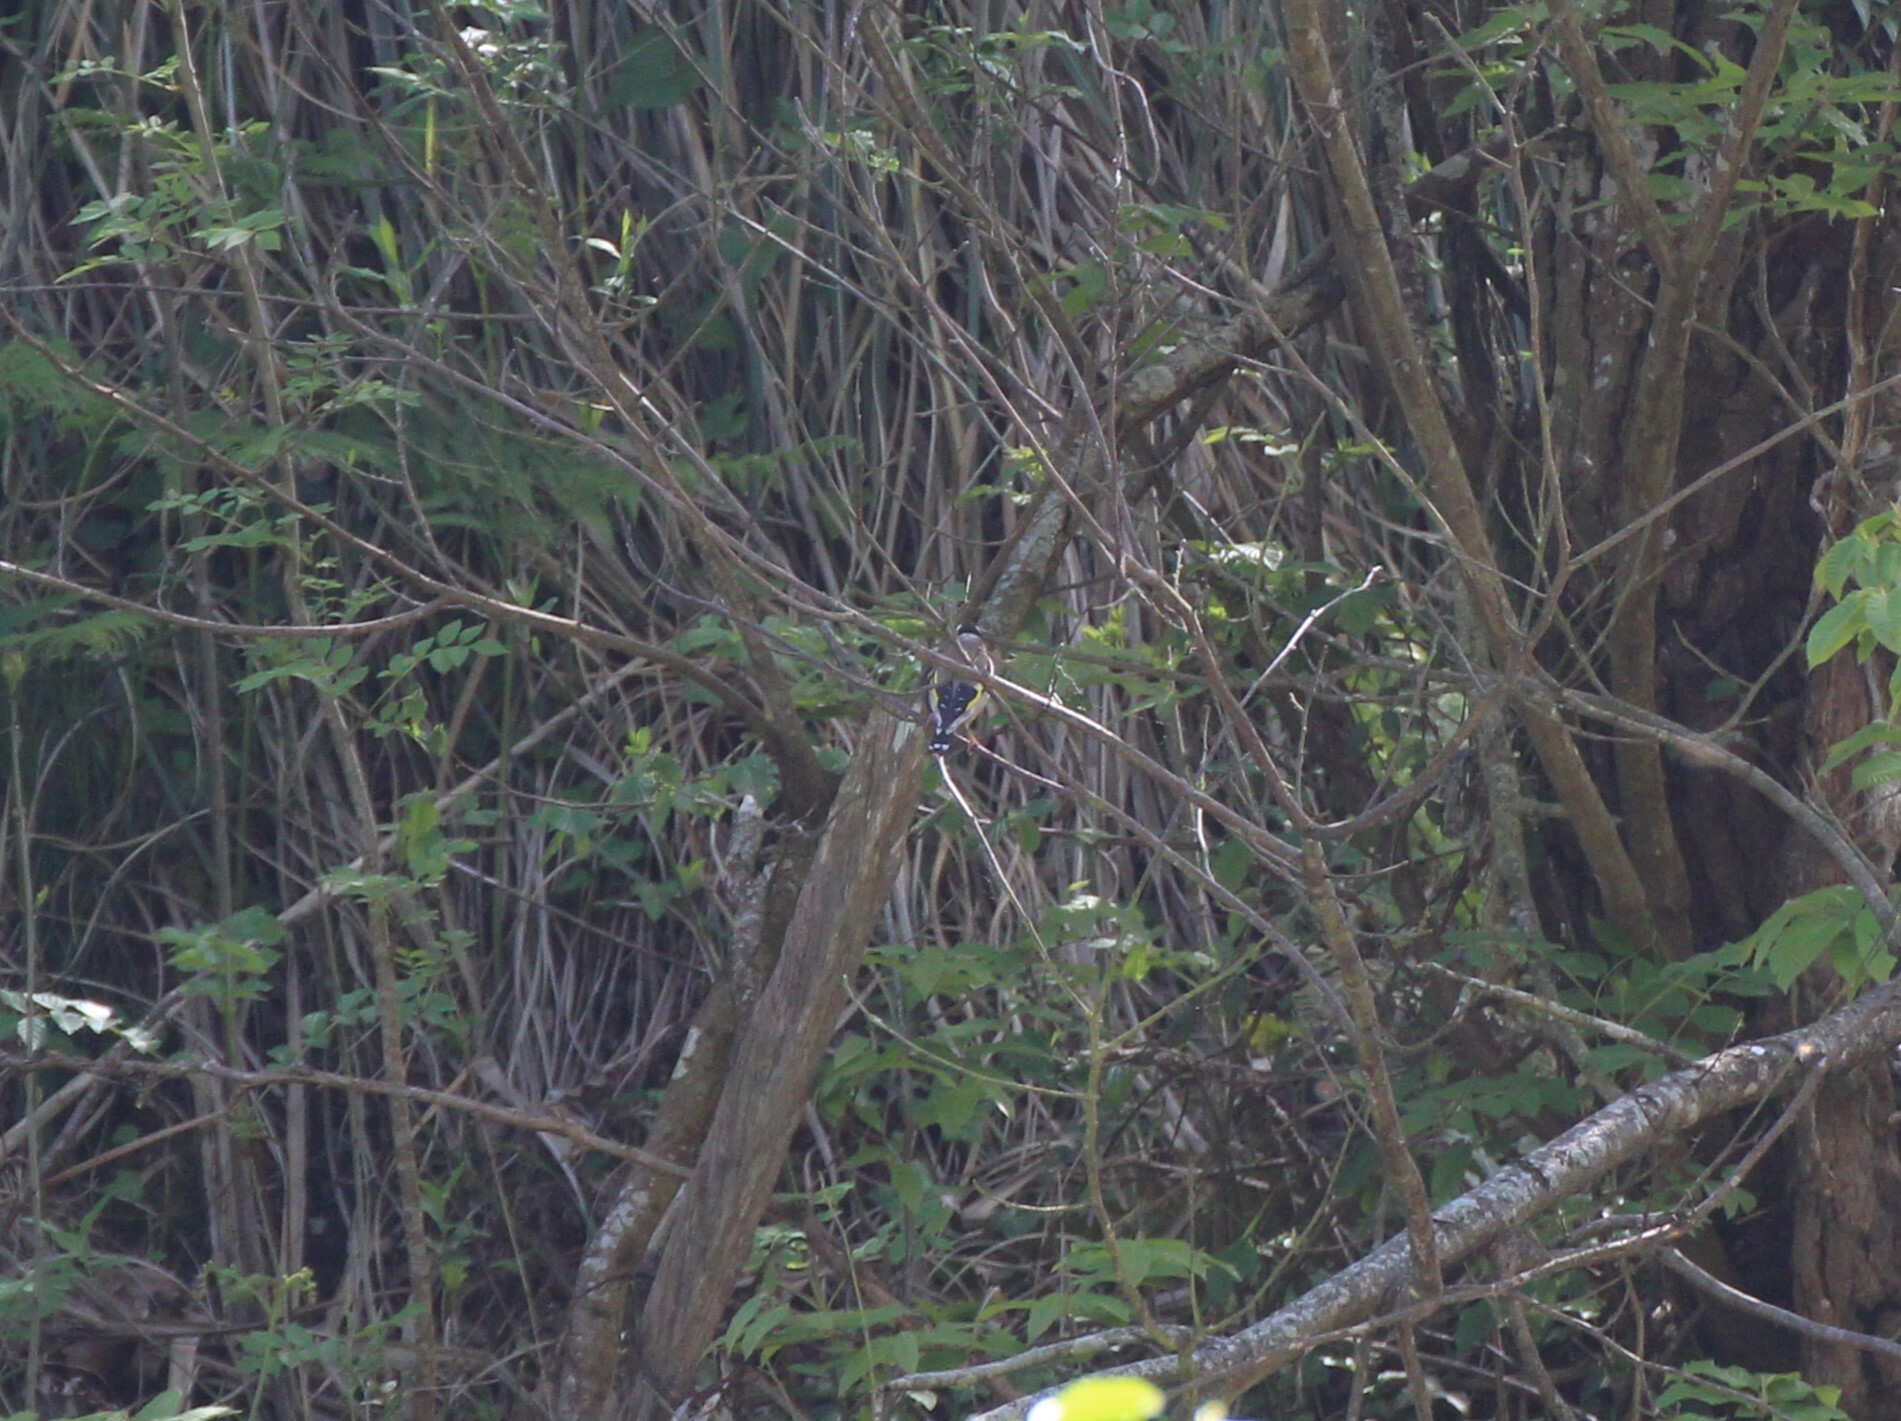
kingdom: Animalia
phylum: Chordata
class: Aves
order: Passeriformes
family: Fringillidae
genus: Carduelis
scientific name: Carduelis carduelis
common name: European goldfinch
